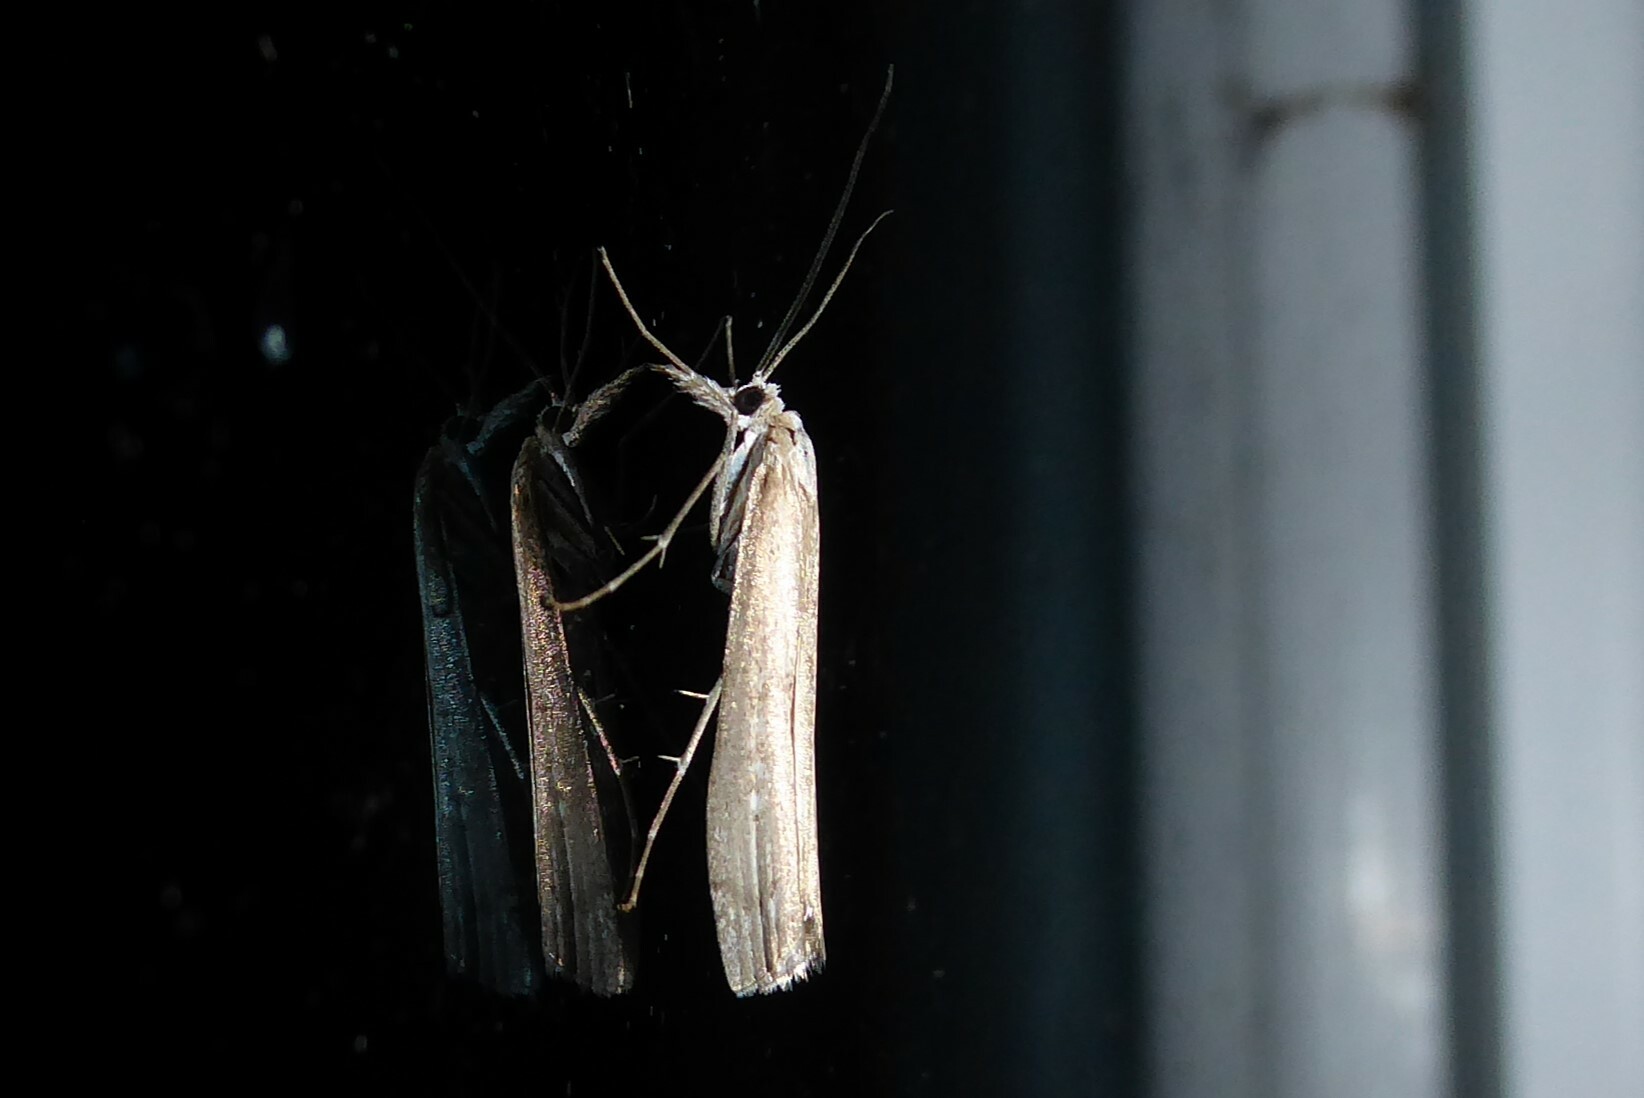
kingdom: Animalia
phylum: Arthropoda
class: Insecta
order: Lepidoptera
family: Crambidae
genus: Orocrambus
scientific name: Orocrambus cyclopicus
